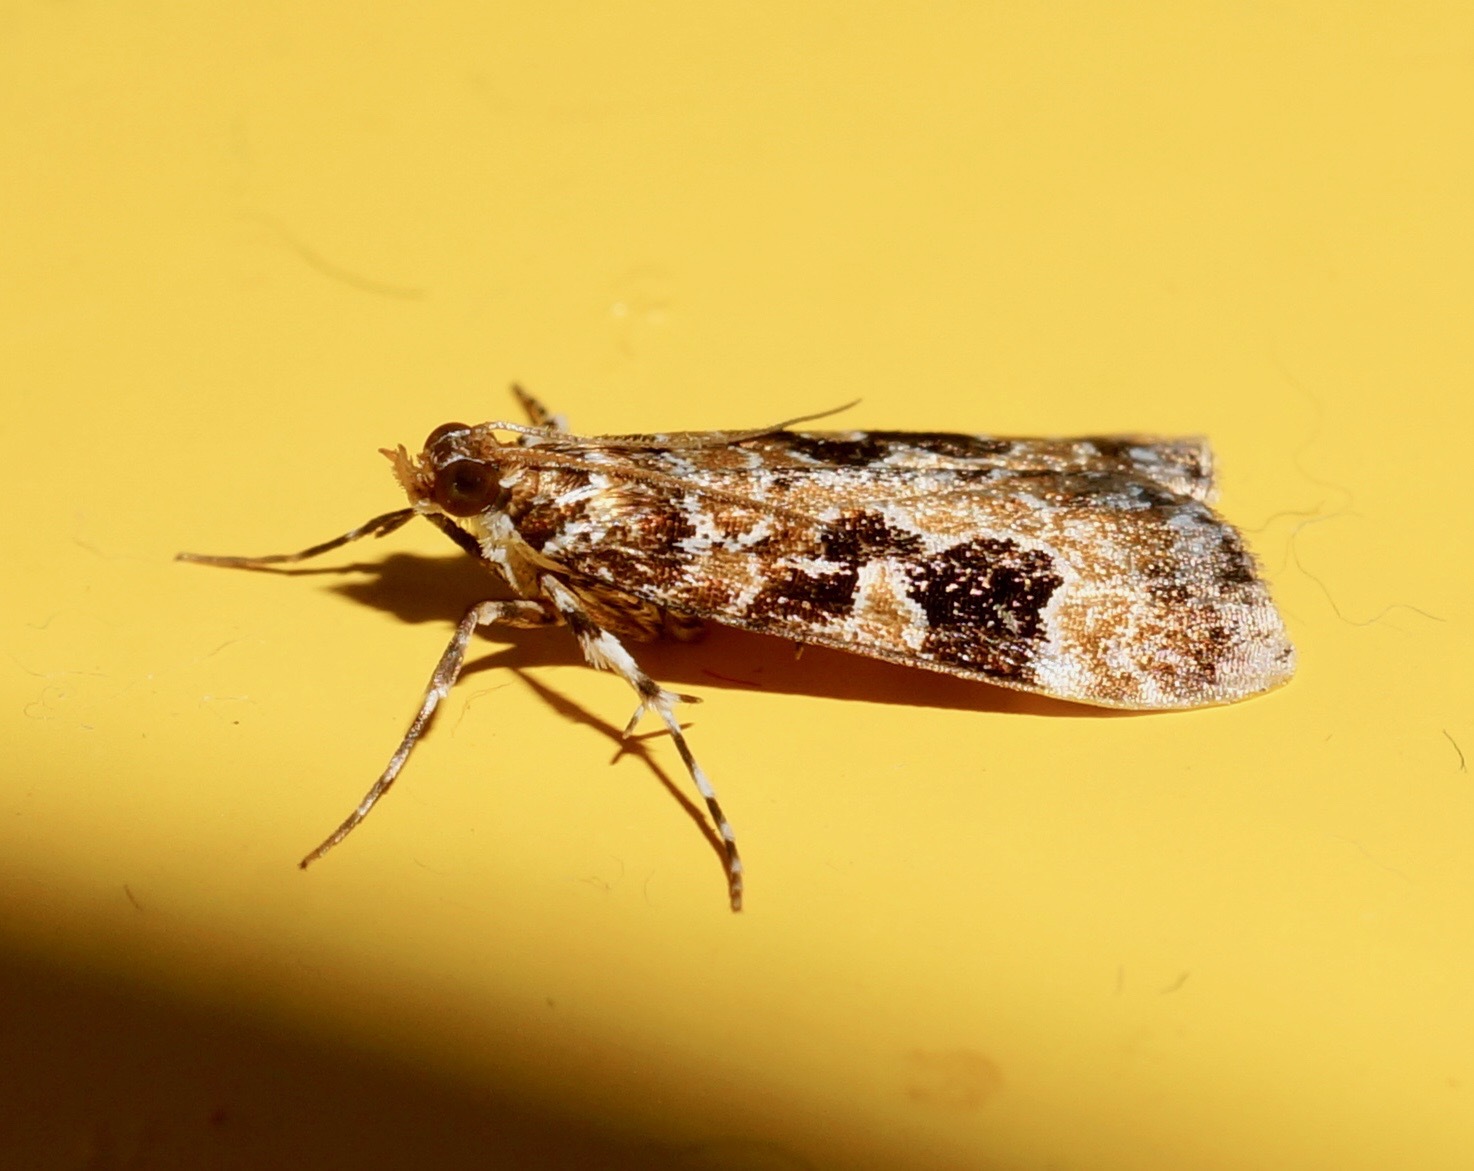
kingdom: Animalia
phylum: Arthropoda
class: Insecta
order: Lepidoptera
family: Crambidae
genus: Scoparia
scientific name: Scoparia ustimacula
